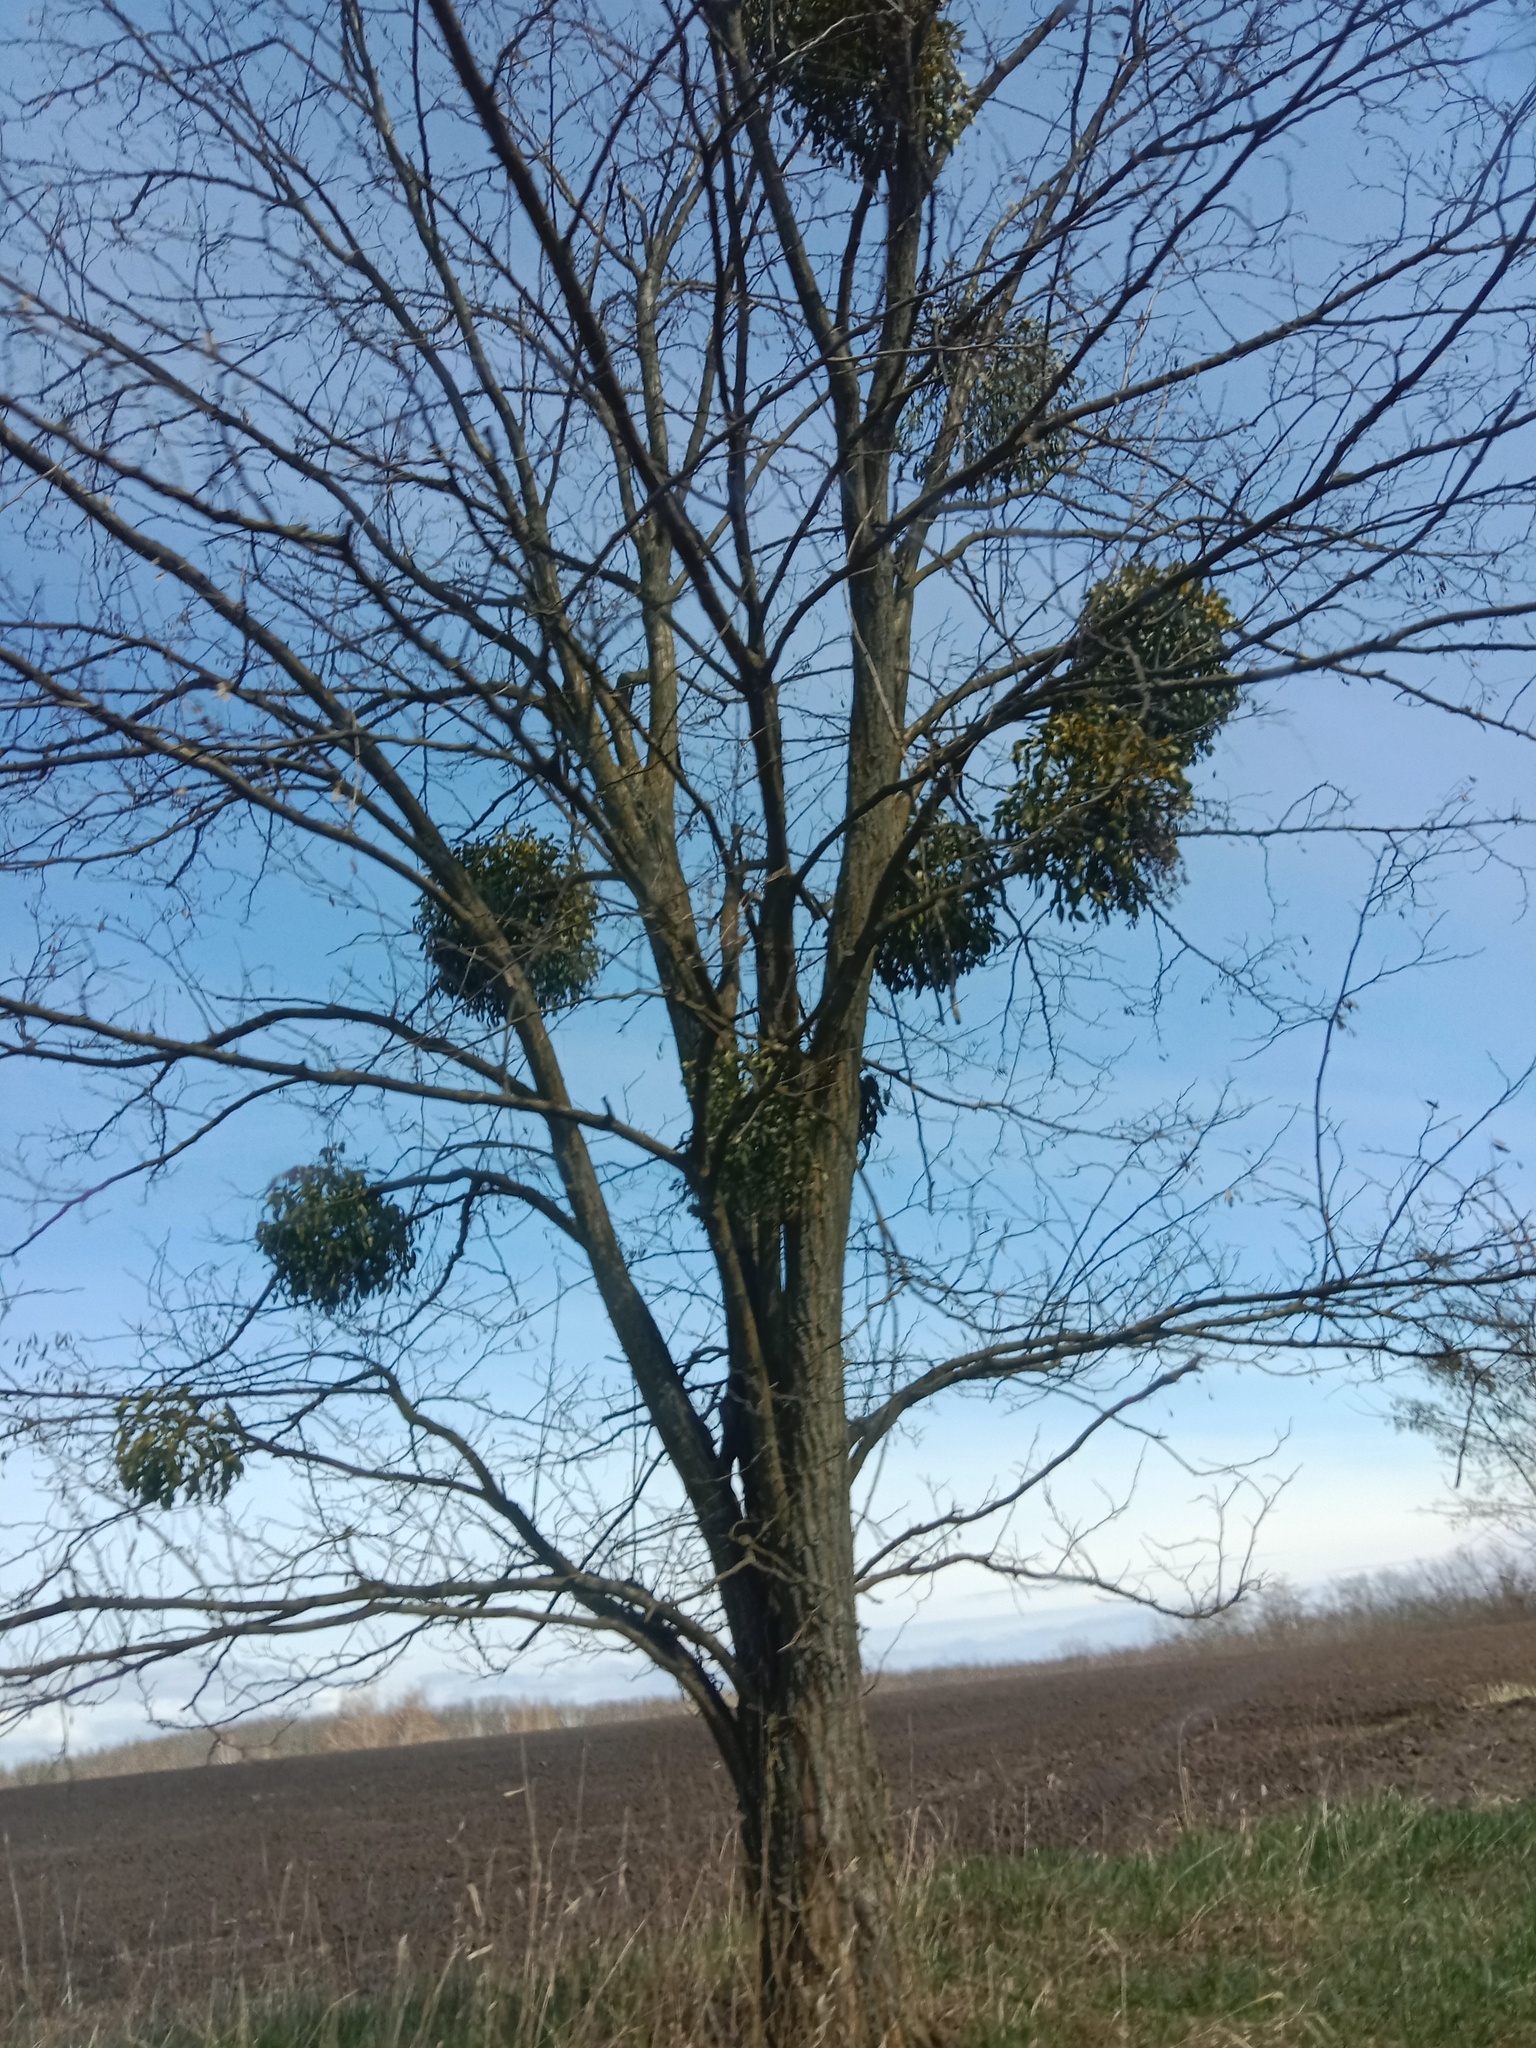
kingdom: Plantae
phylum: Tracheophyta
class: Magnoliopsida
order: Santalales
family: Viscaceae
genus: Viscum
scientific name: Viscum album
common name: Mistletoe
